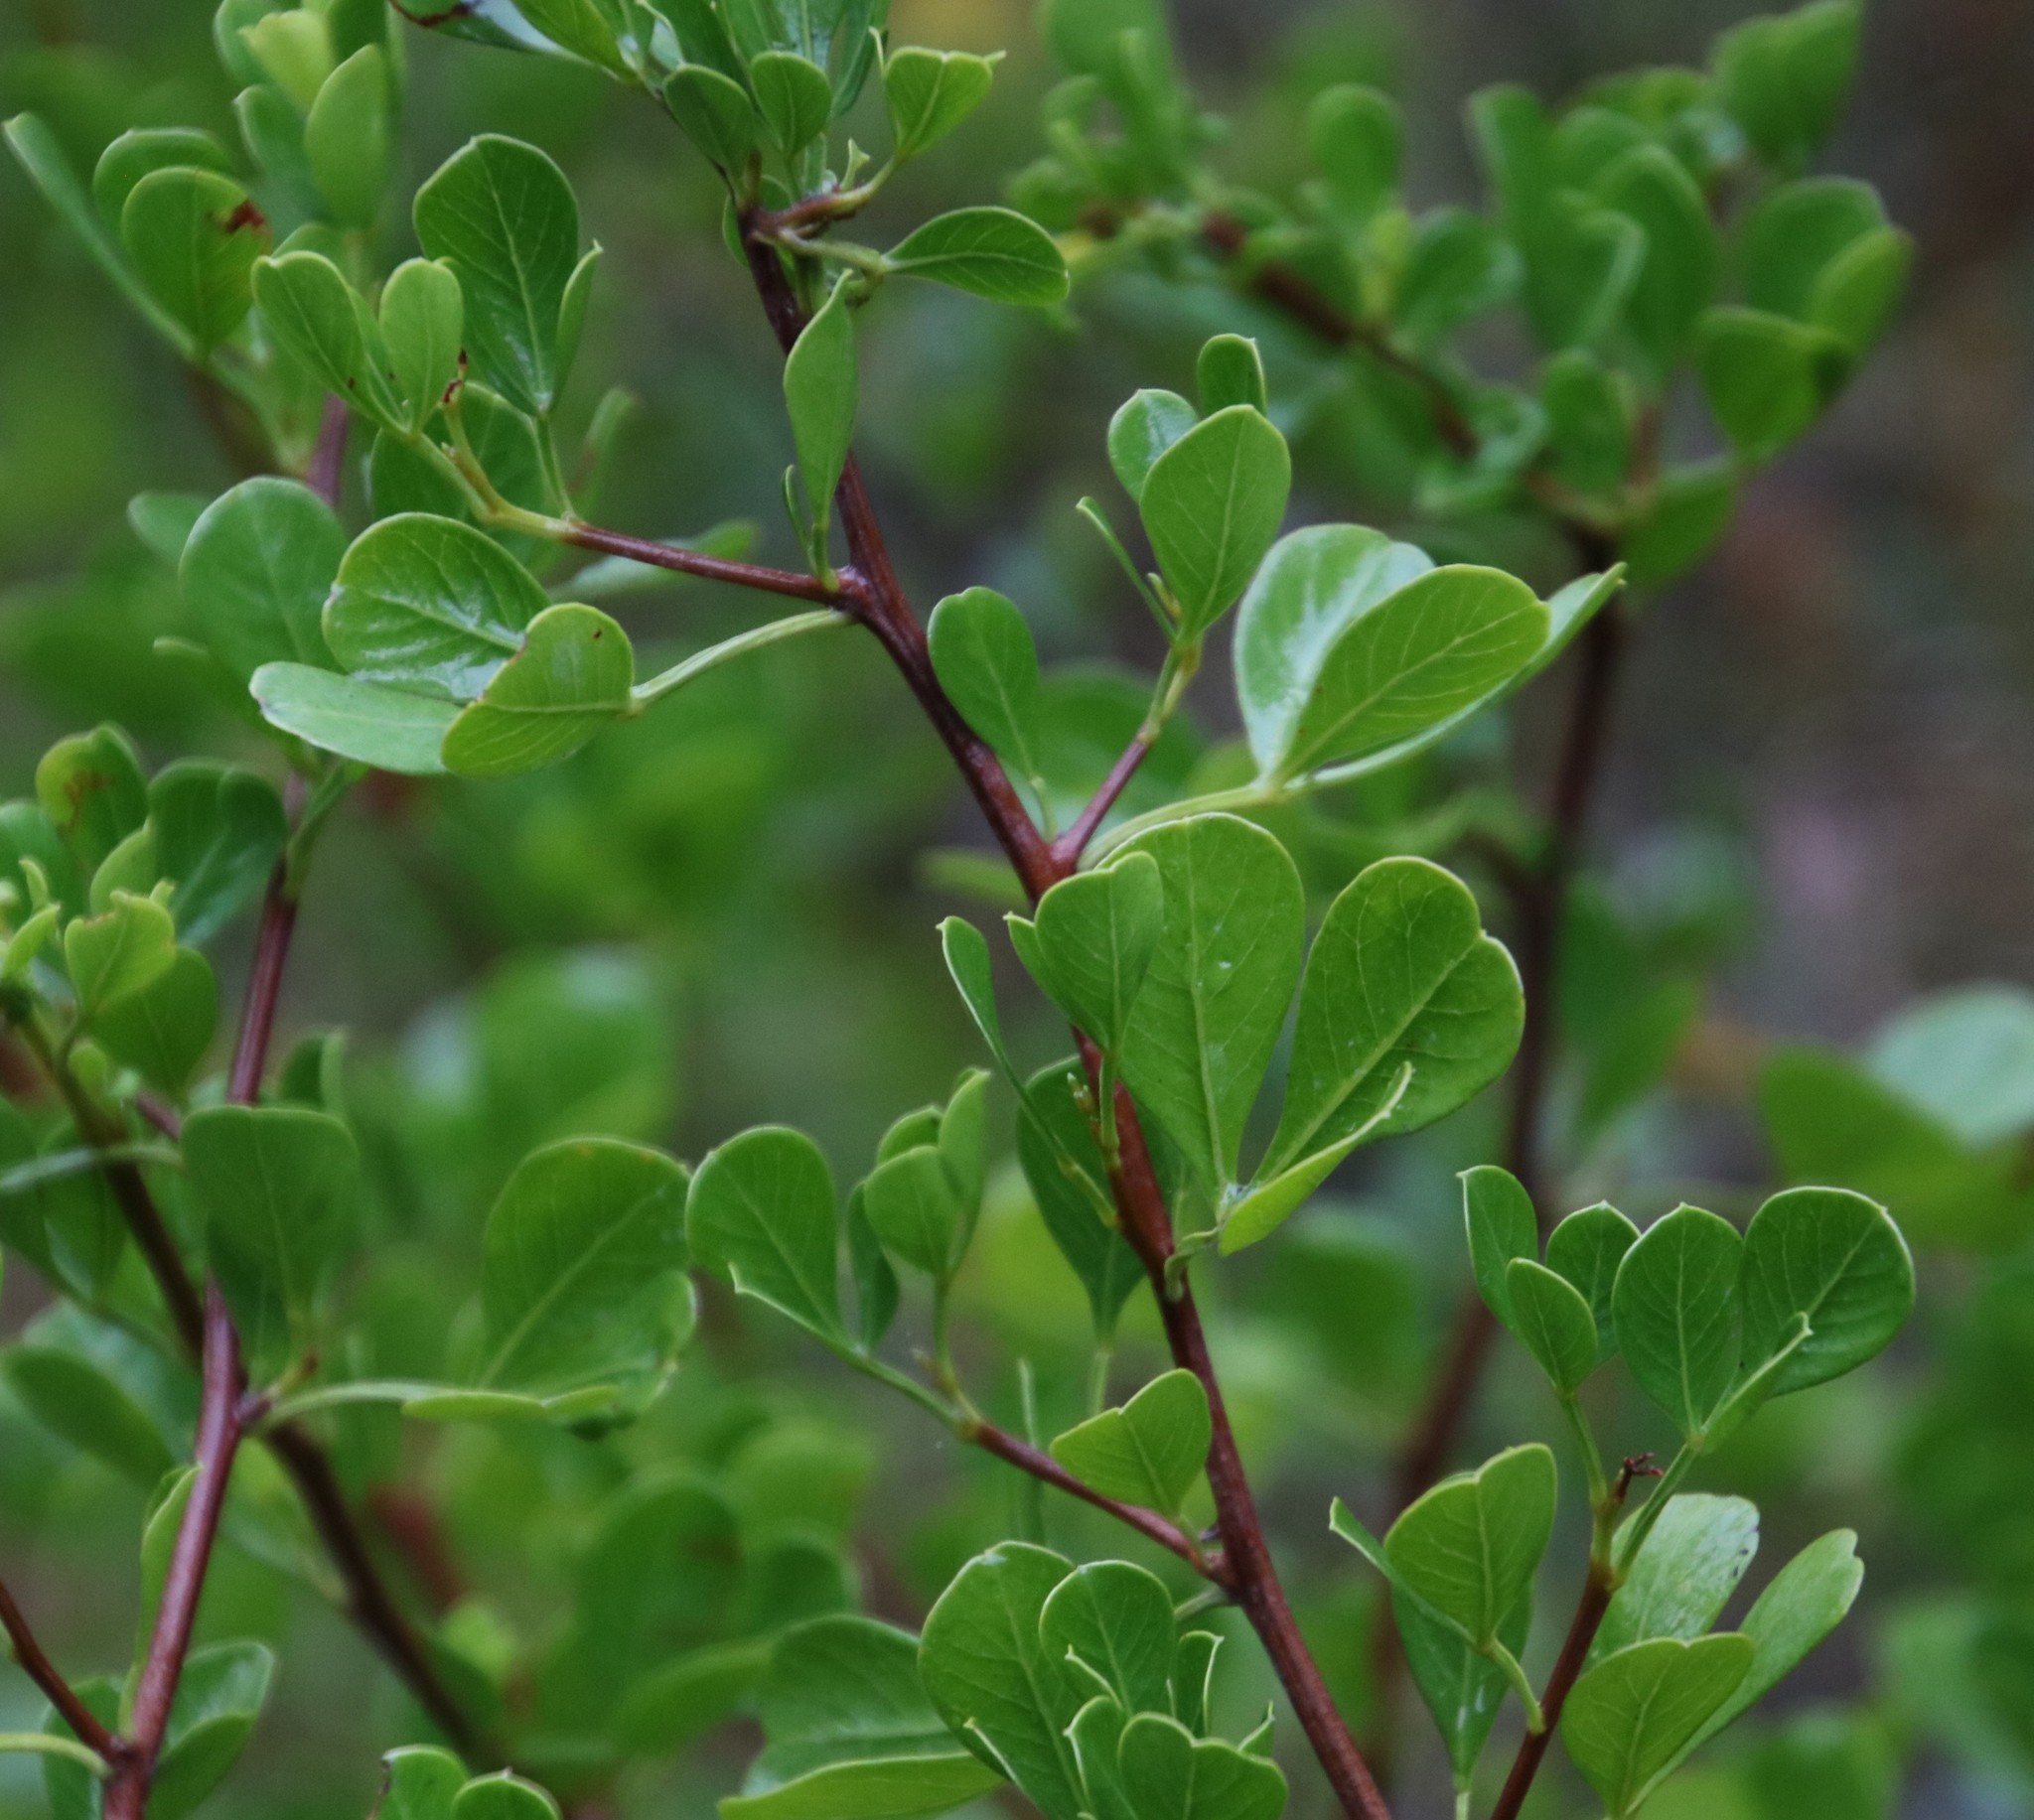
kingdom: Plantae
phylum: Tracheophyta
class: Magnoliopsida
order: Sapindales
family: Anacardiaceae
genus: Searsia
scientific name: Searsia glauca
